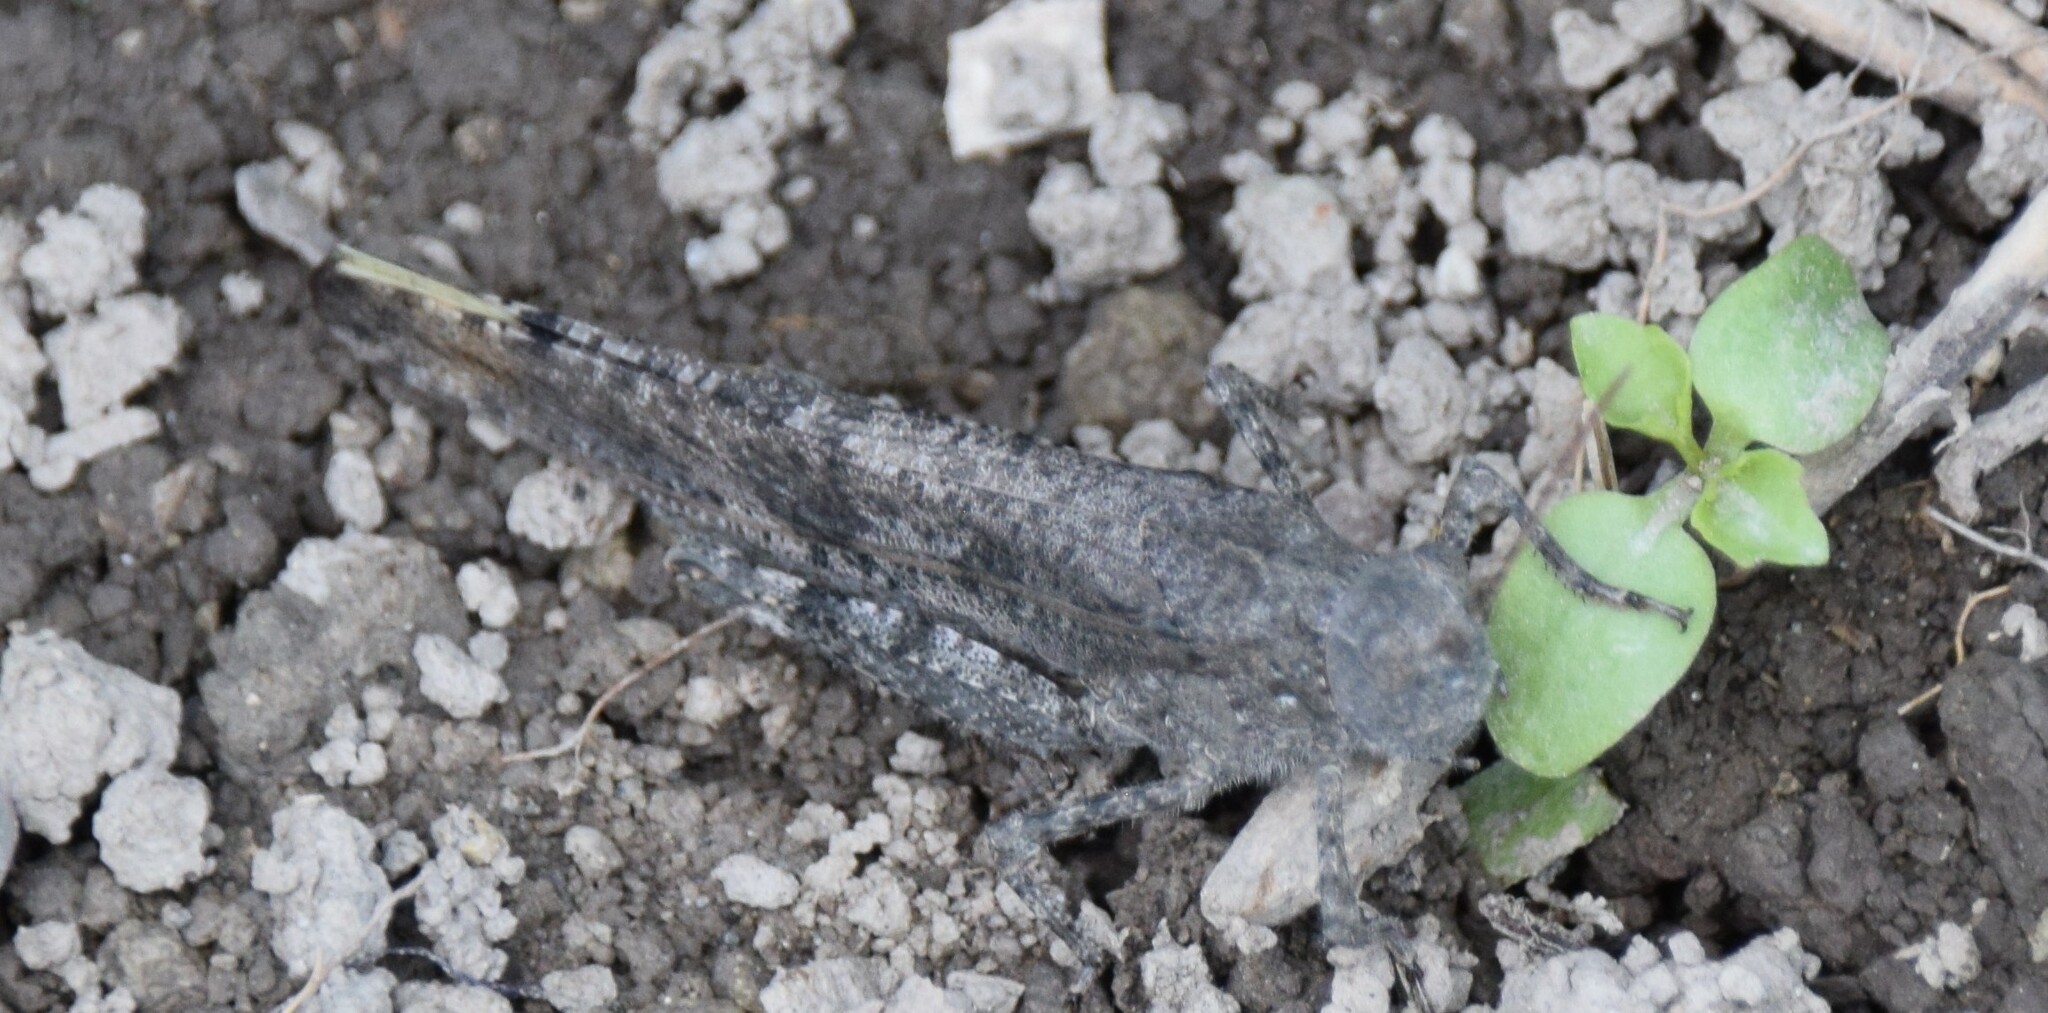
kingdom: Animalia
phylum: Arthropoda
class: Insecta
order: Orthoptera
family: Acrididae
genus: Dissosteira
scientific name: Dissosteira carolina
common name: Carolina grasshopper
